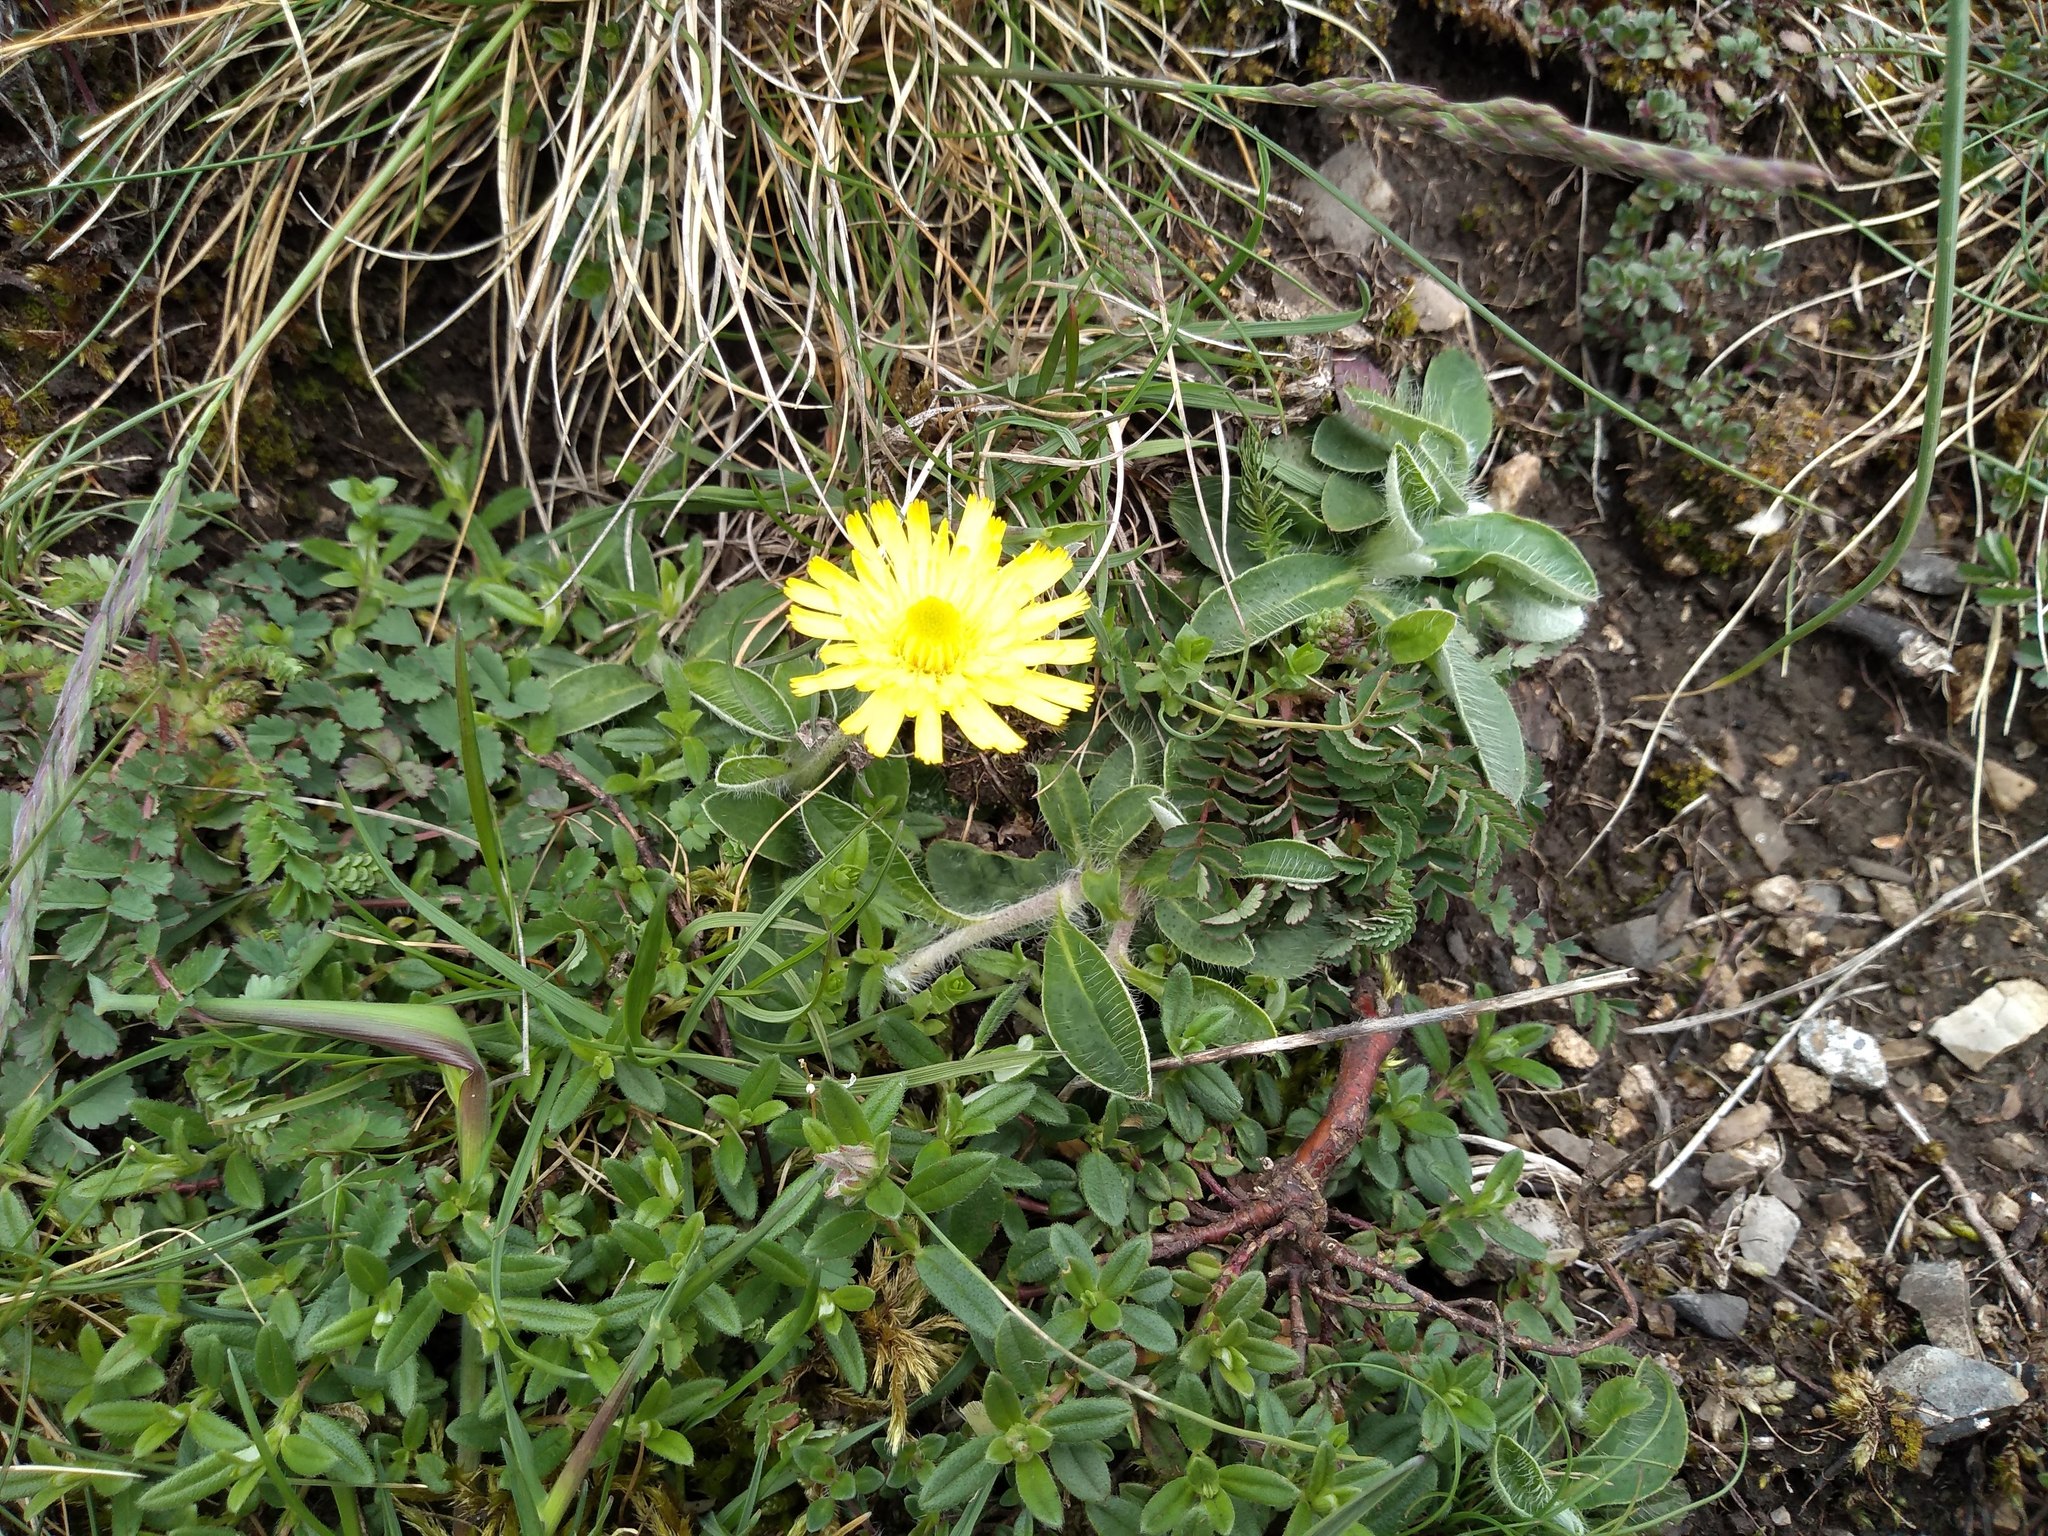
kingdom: Plantae
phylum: Tracheophyta
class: Magnoliopsida
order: Asterales
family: Asteraceae
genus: Pilosella
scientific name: Pilosella officinarum
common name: Mouse-ear hawkweed
